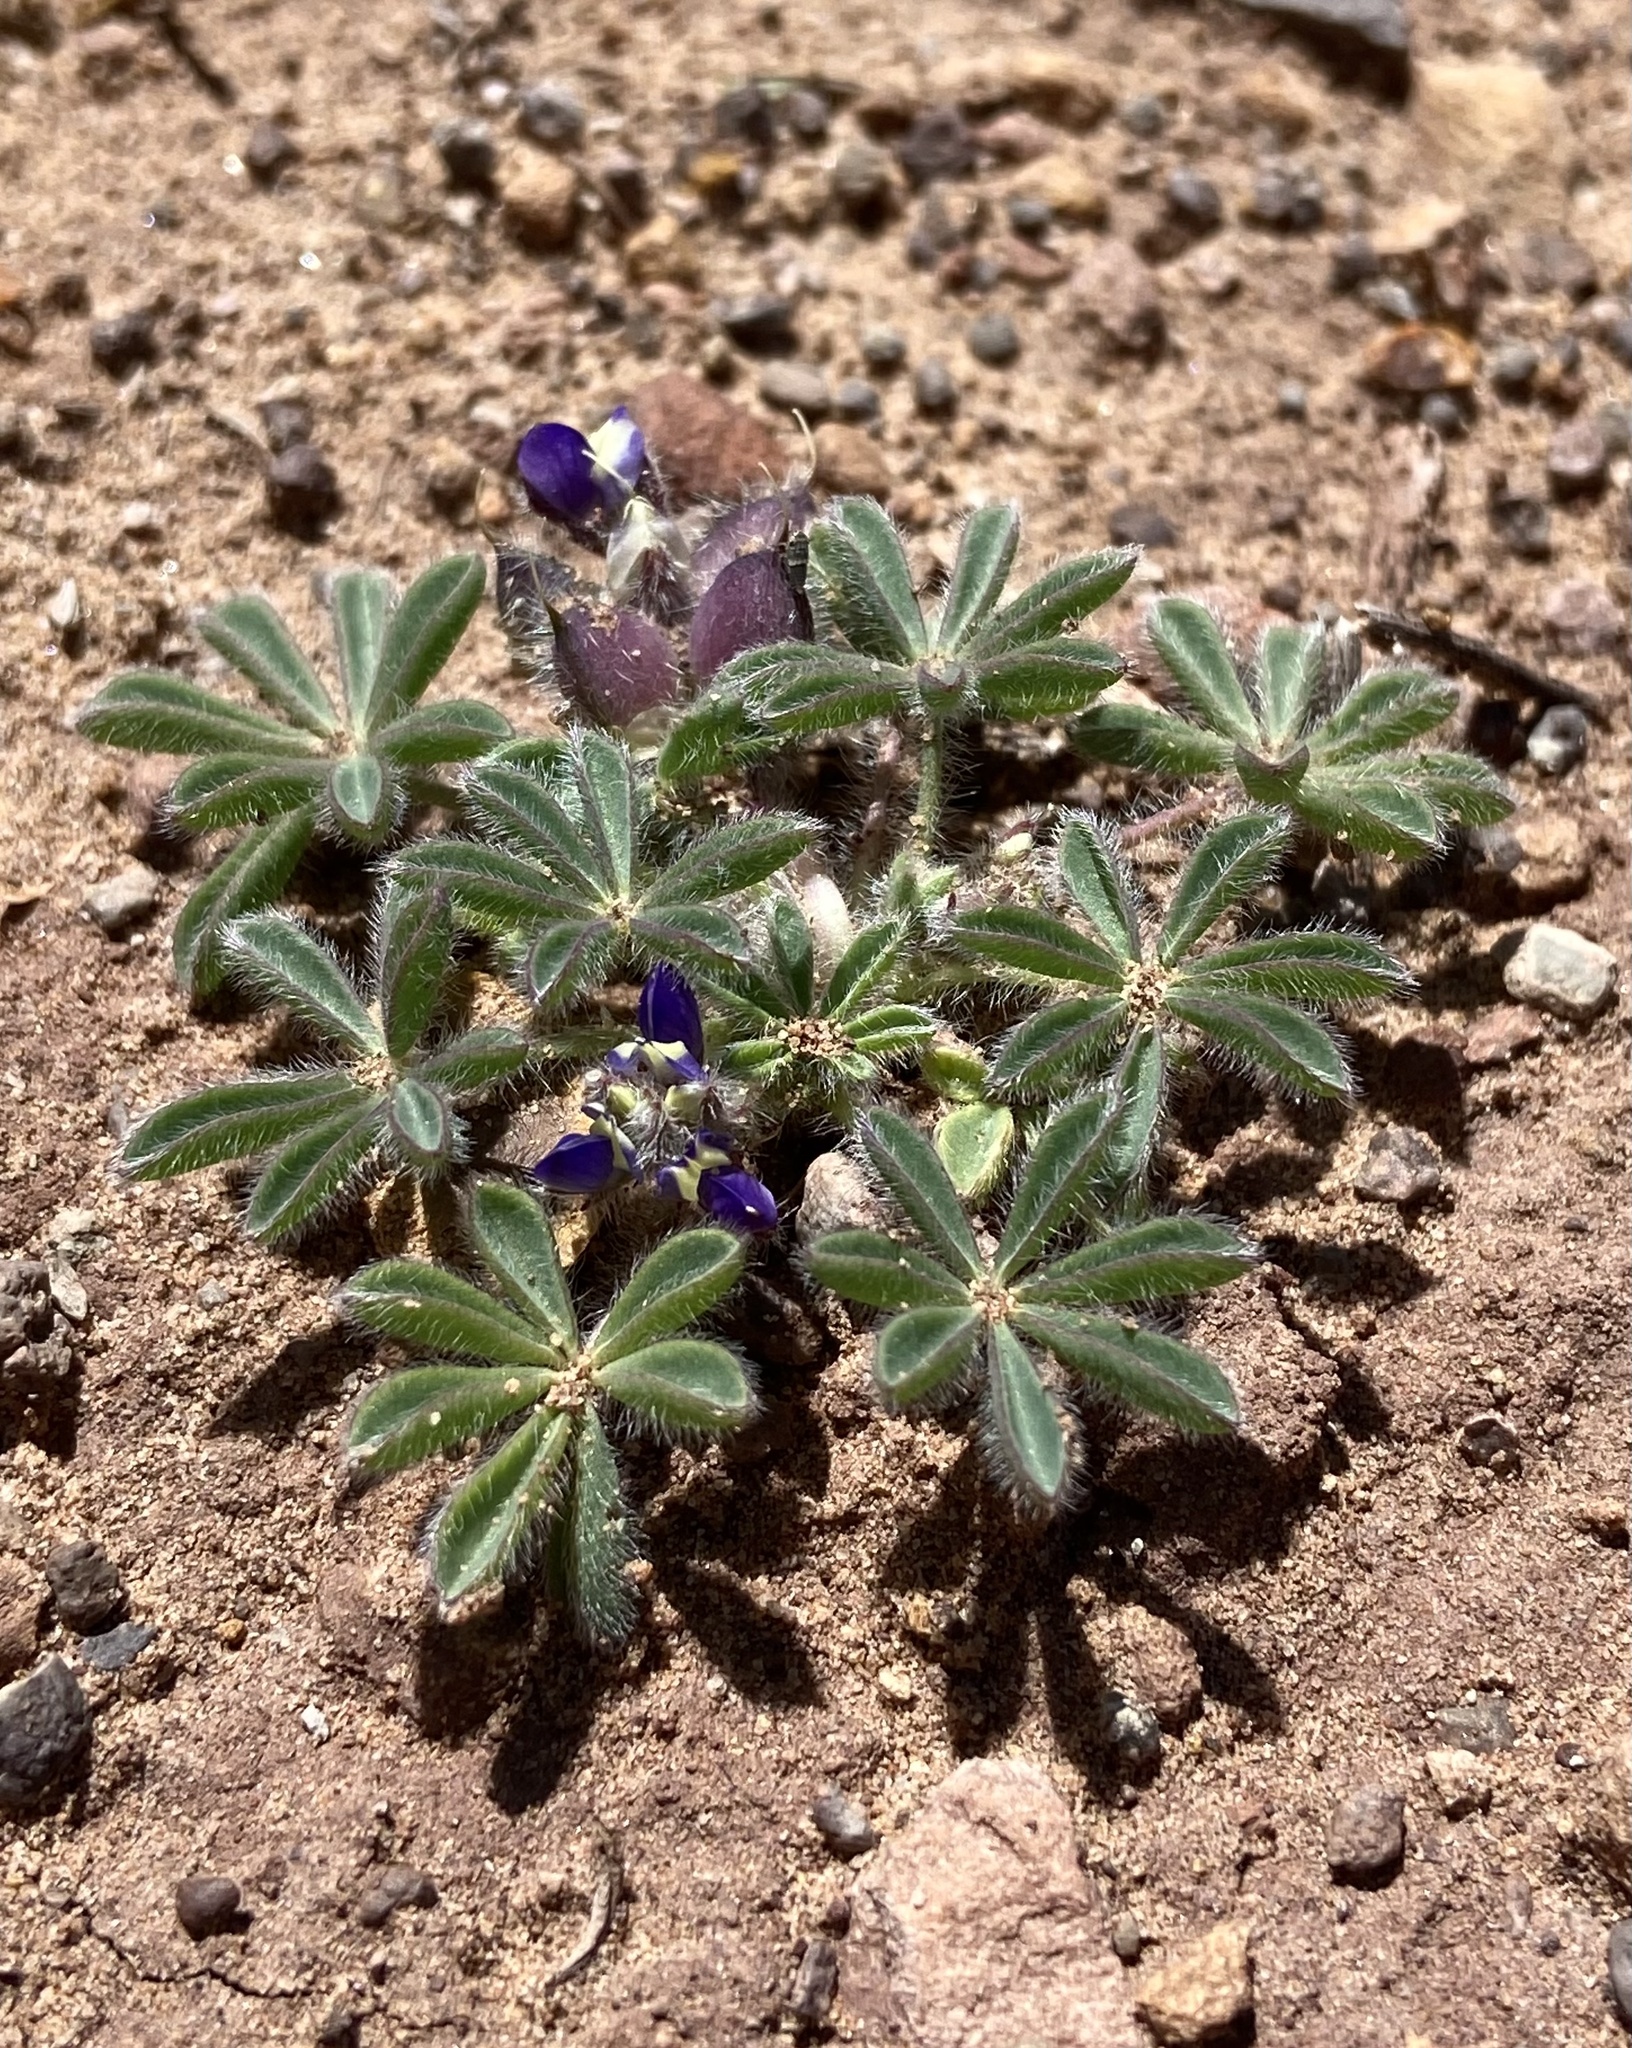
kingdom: Plantae
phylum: Tracheophyta
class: Magnoliopsida
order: Fabales
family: Fabaceae
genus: Lupinus
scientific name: Lupinus brevicaulis
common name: Sand lupine
